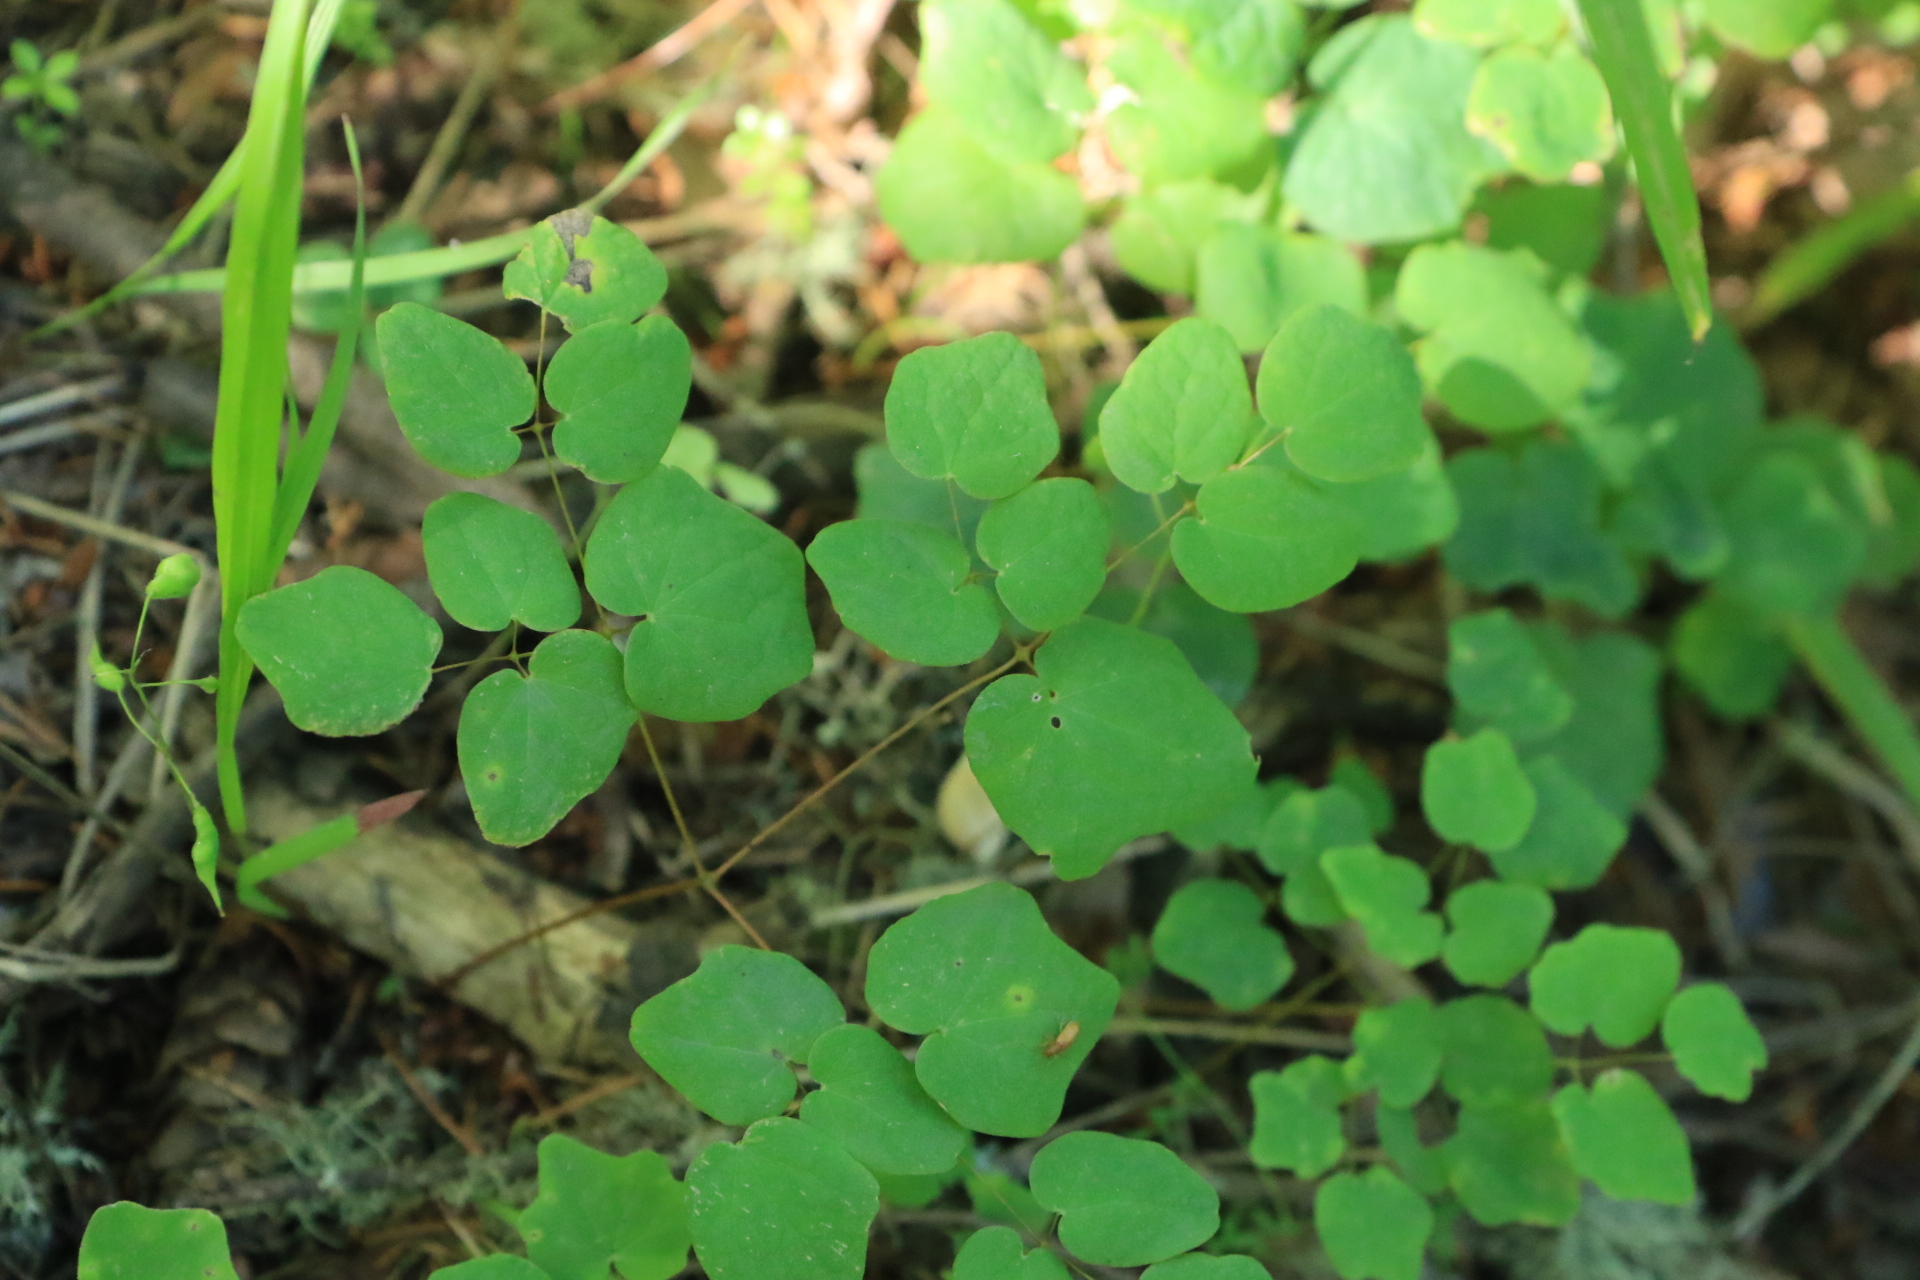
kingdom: Plantae
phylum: Tracheophyta
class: Magnoliopsida
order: Ranunculales
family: Berberidaceae
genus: Vancouveria
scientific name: Vancouveria hexandra
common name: Northern inside-out-flower
